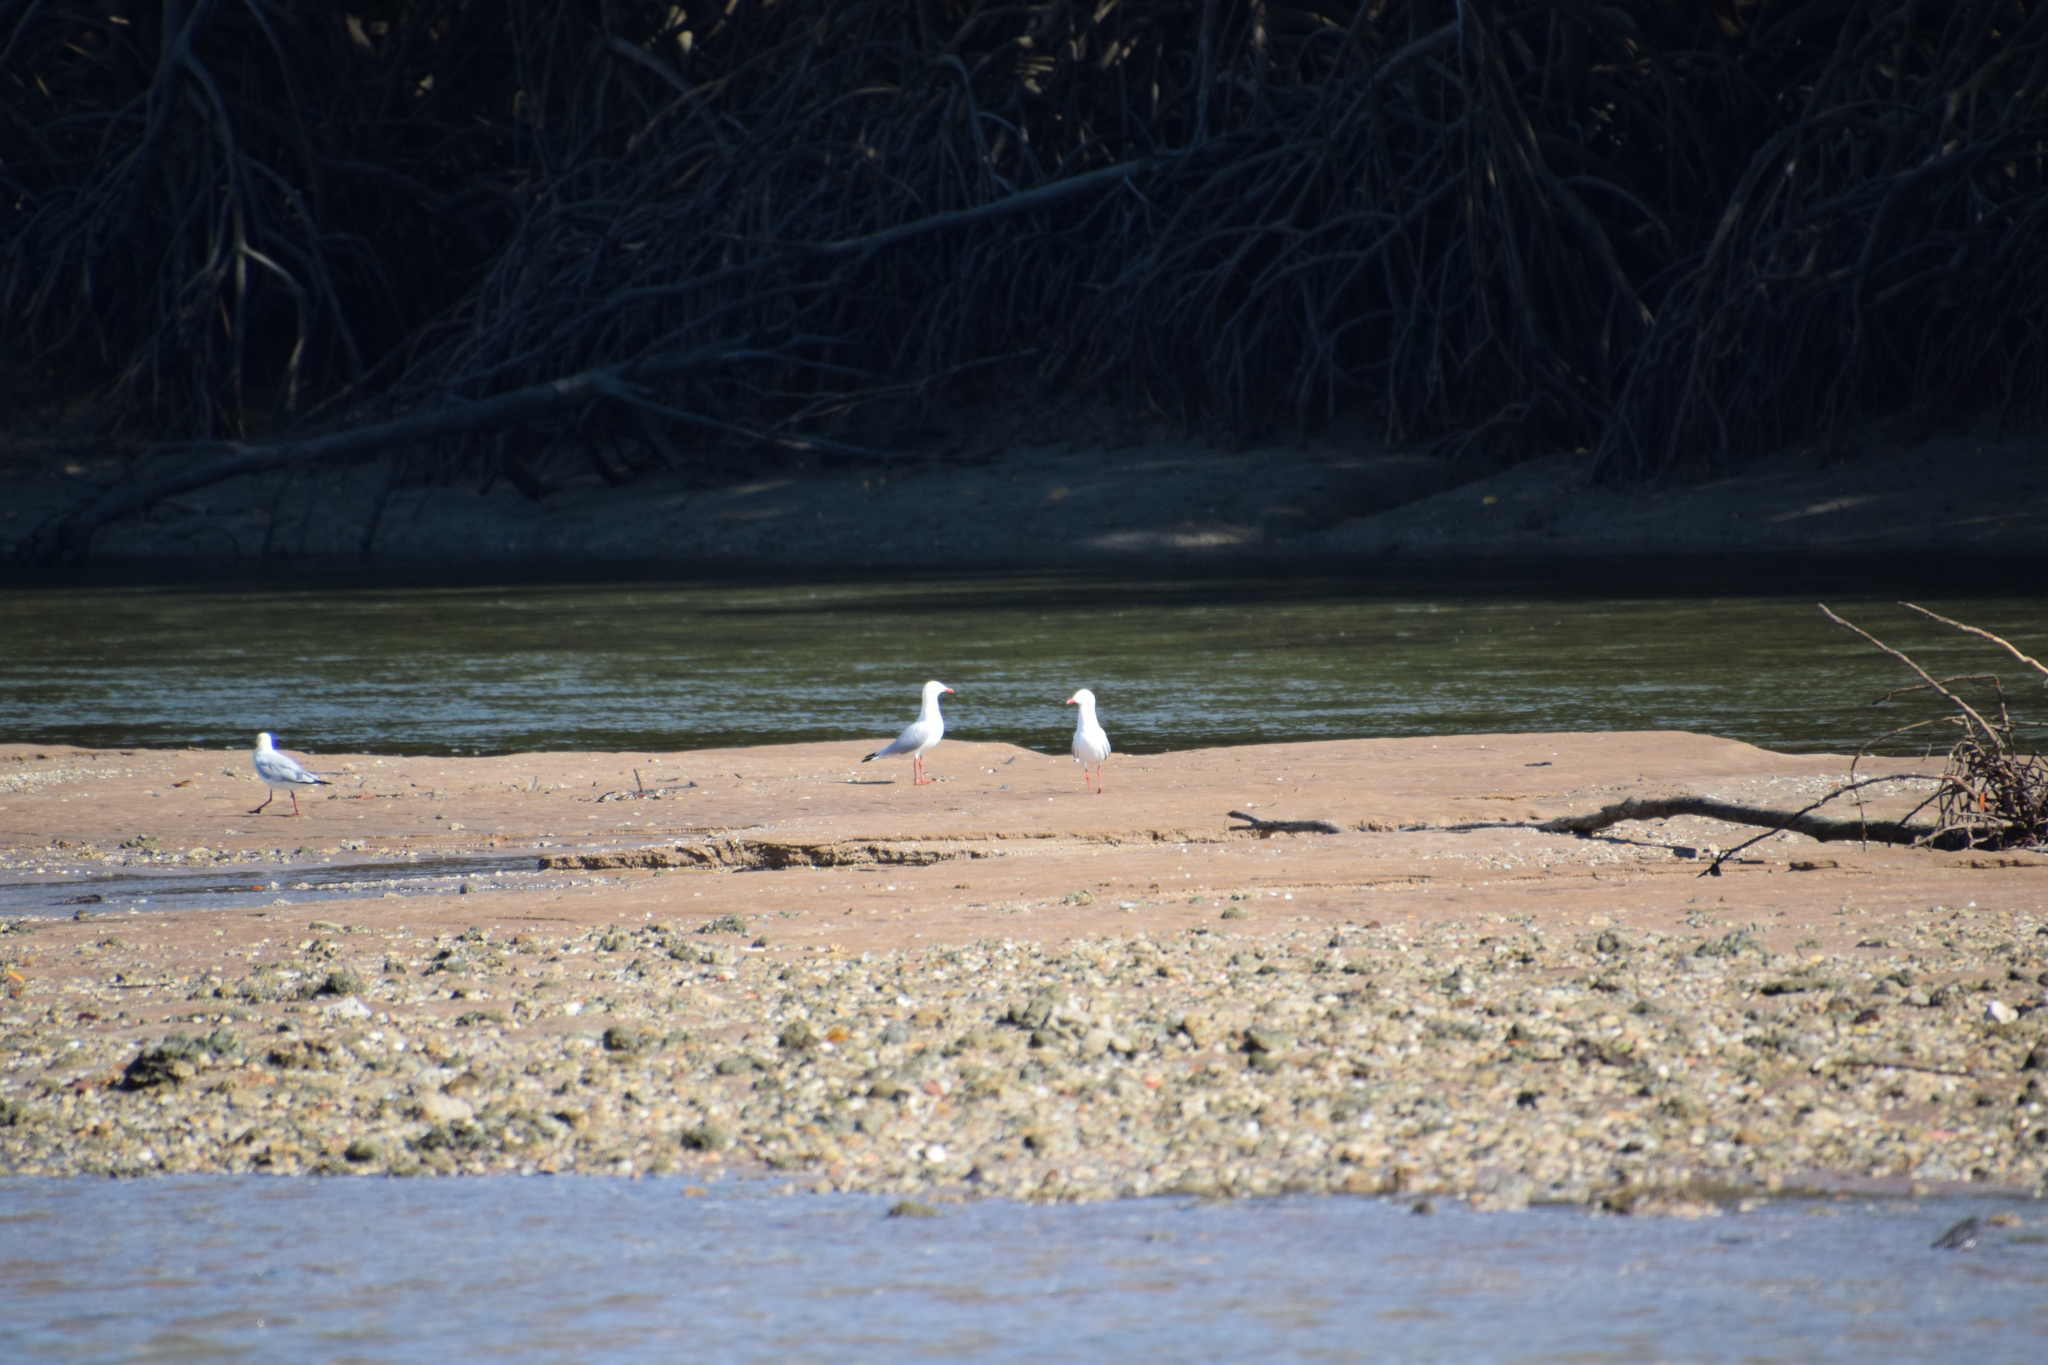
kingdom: Animalia
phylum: Chordata
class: Aves
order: Charadriiformes
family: Laridae
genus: Chroicocephalus
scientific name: Chroicocephalus novaehollandiae
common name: Silver gull
